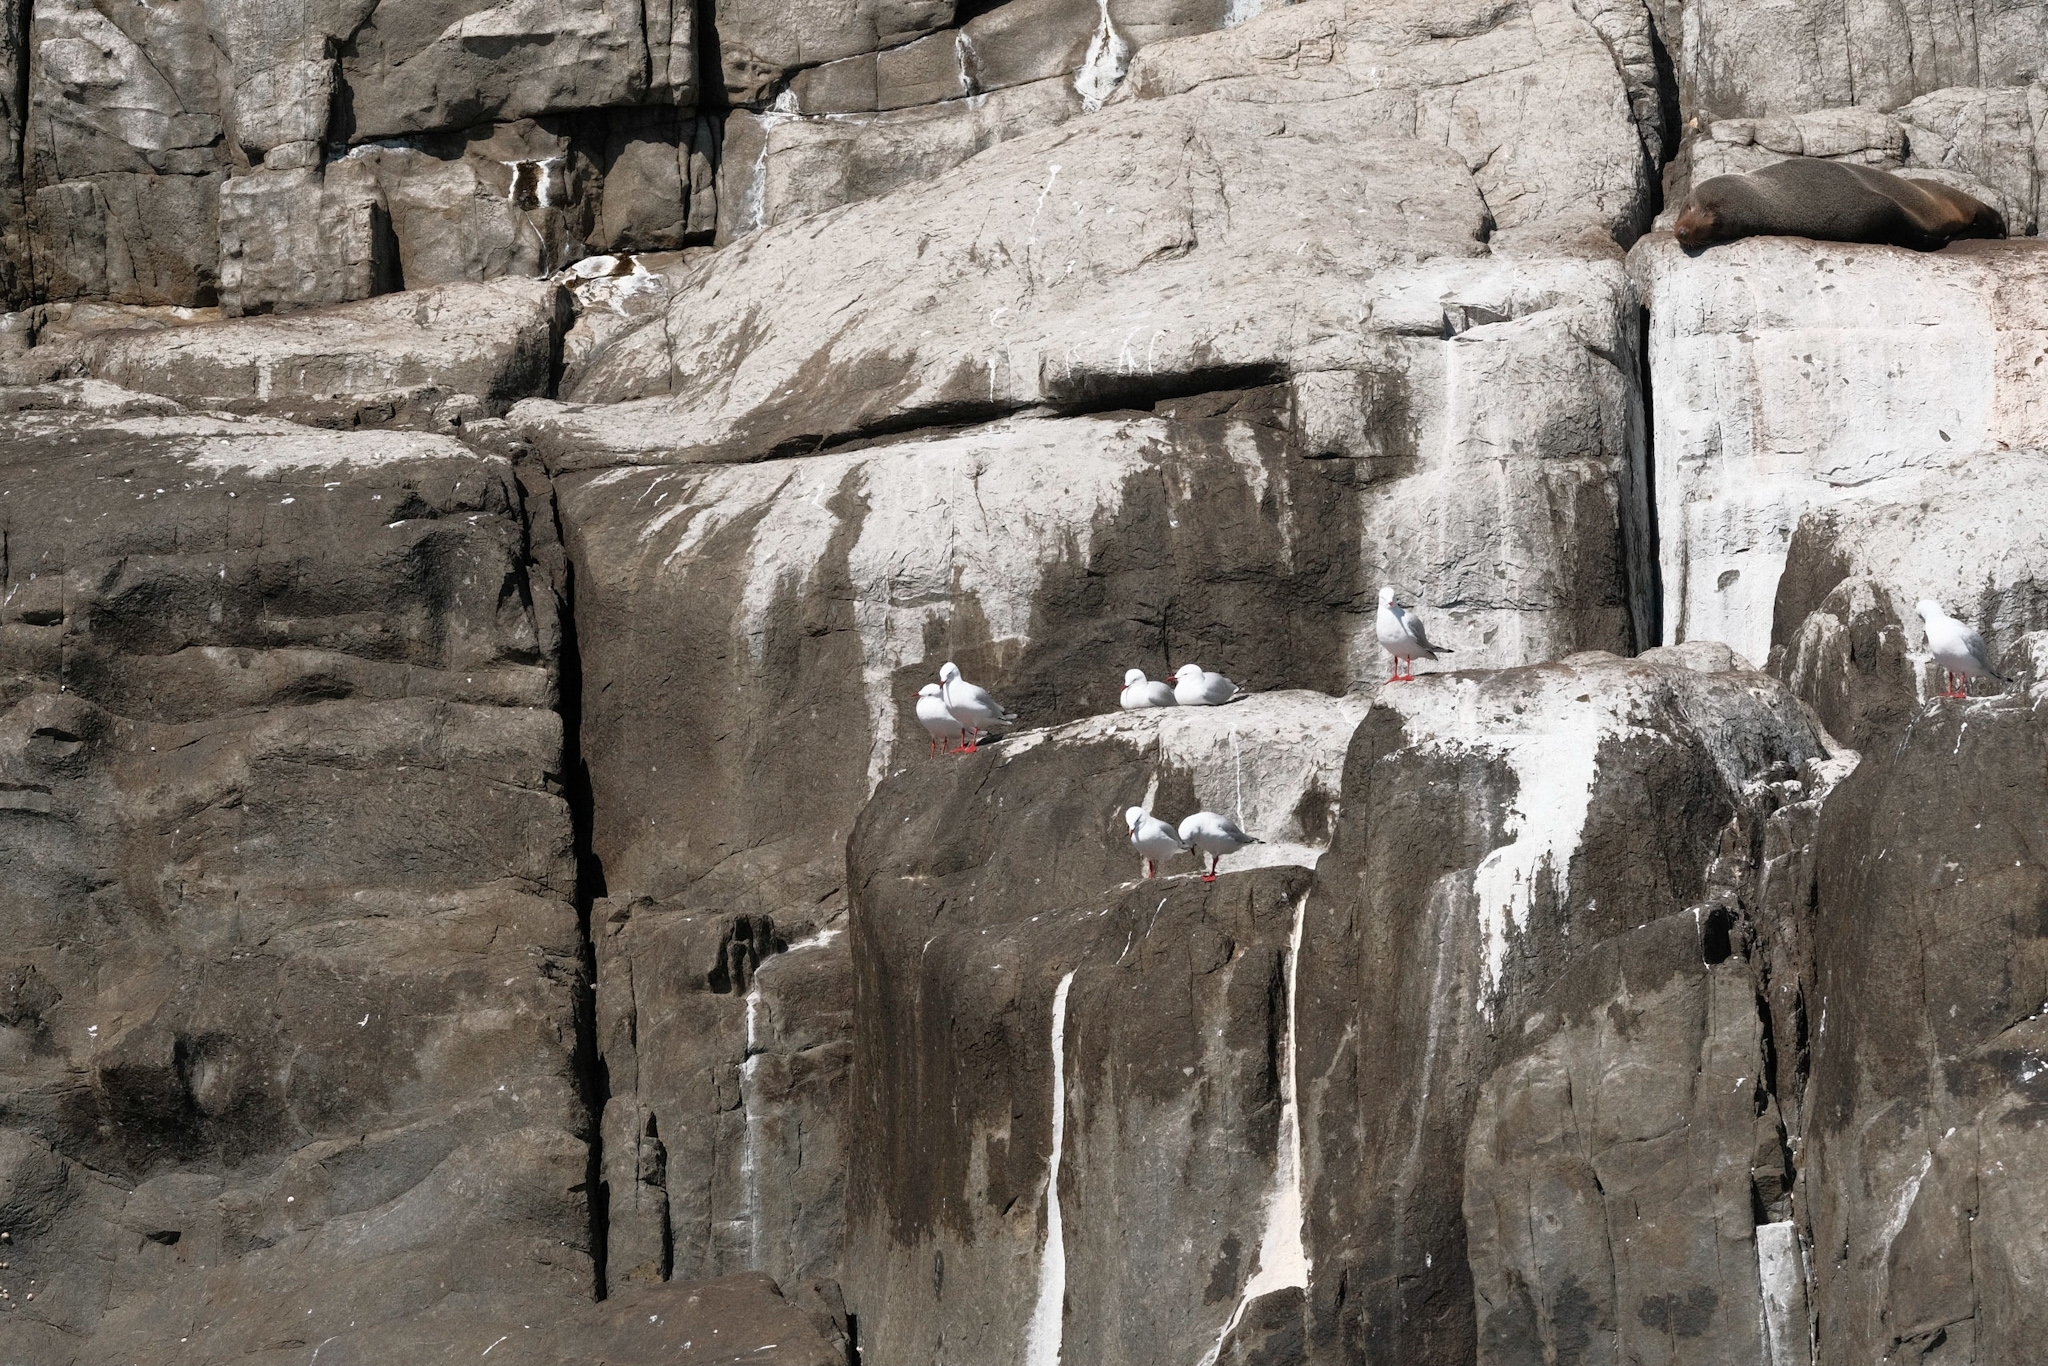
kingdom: Animalia
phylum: Chordata
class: Aves
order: Charadriiformes
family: Laridae
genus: Chroicocephalus
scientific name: Chroicocephalus novaehollandiae
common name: Silver gull
